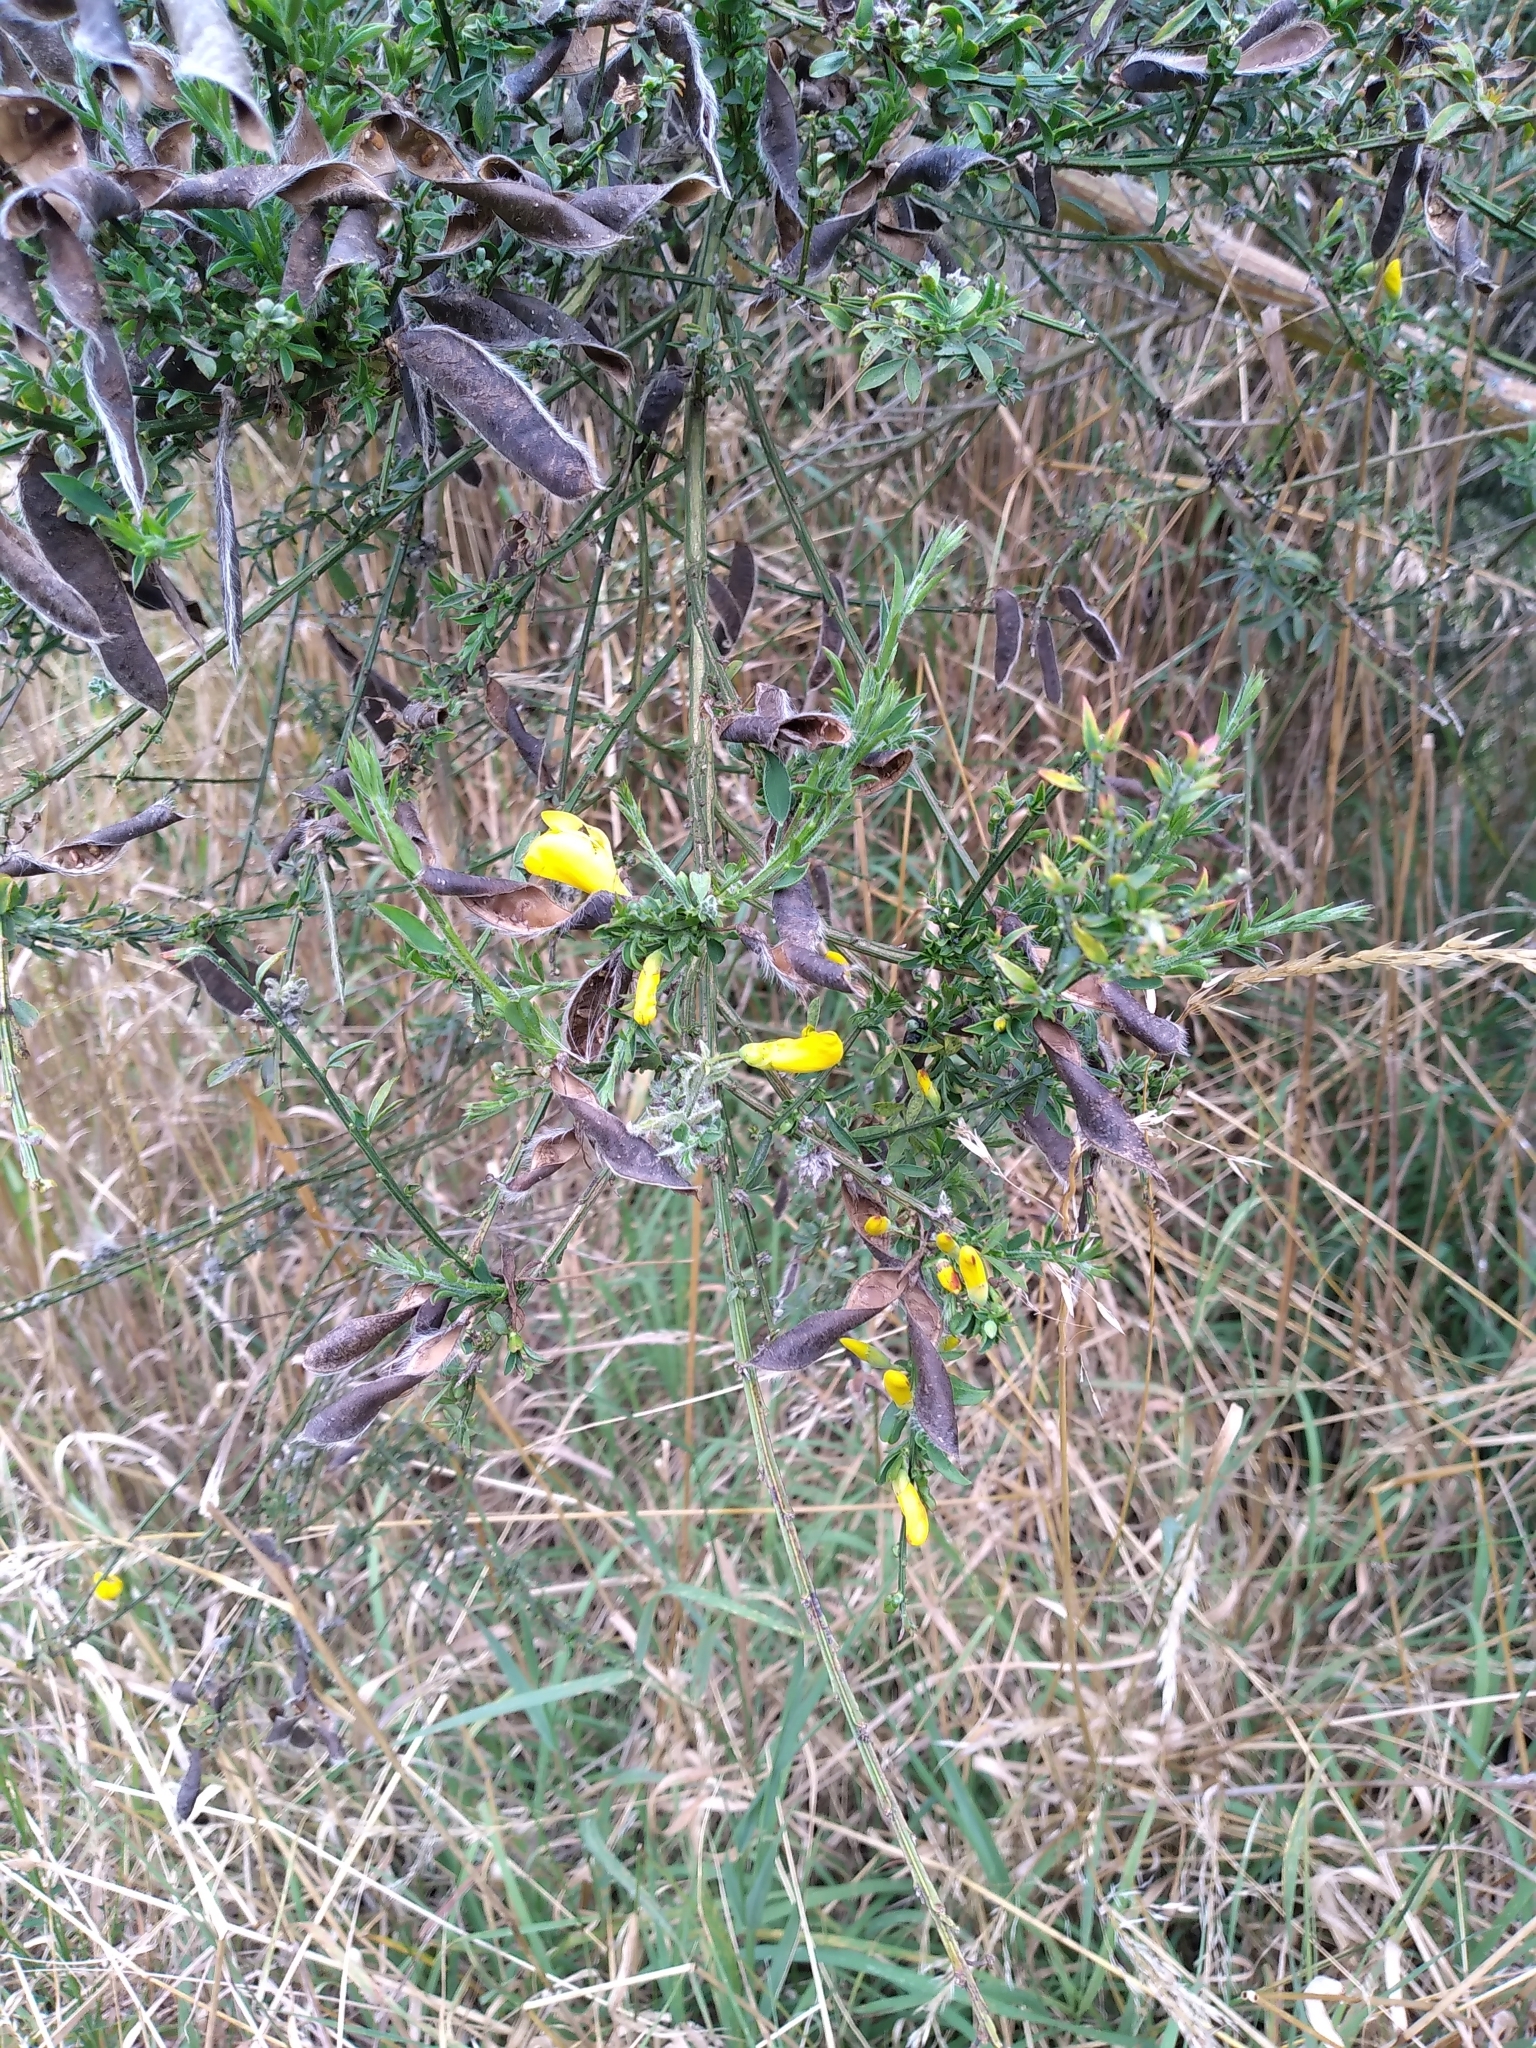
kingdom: Plantae
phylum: Tracheophyta
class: Magnoliopsida
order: Fabales
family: Fabaceae
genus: Cytisus
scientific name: Cytisus scoparius
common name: Scotch broom
